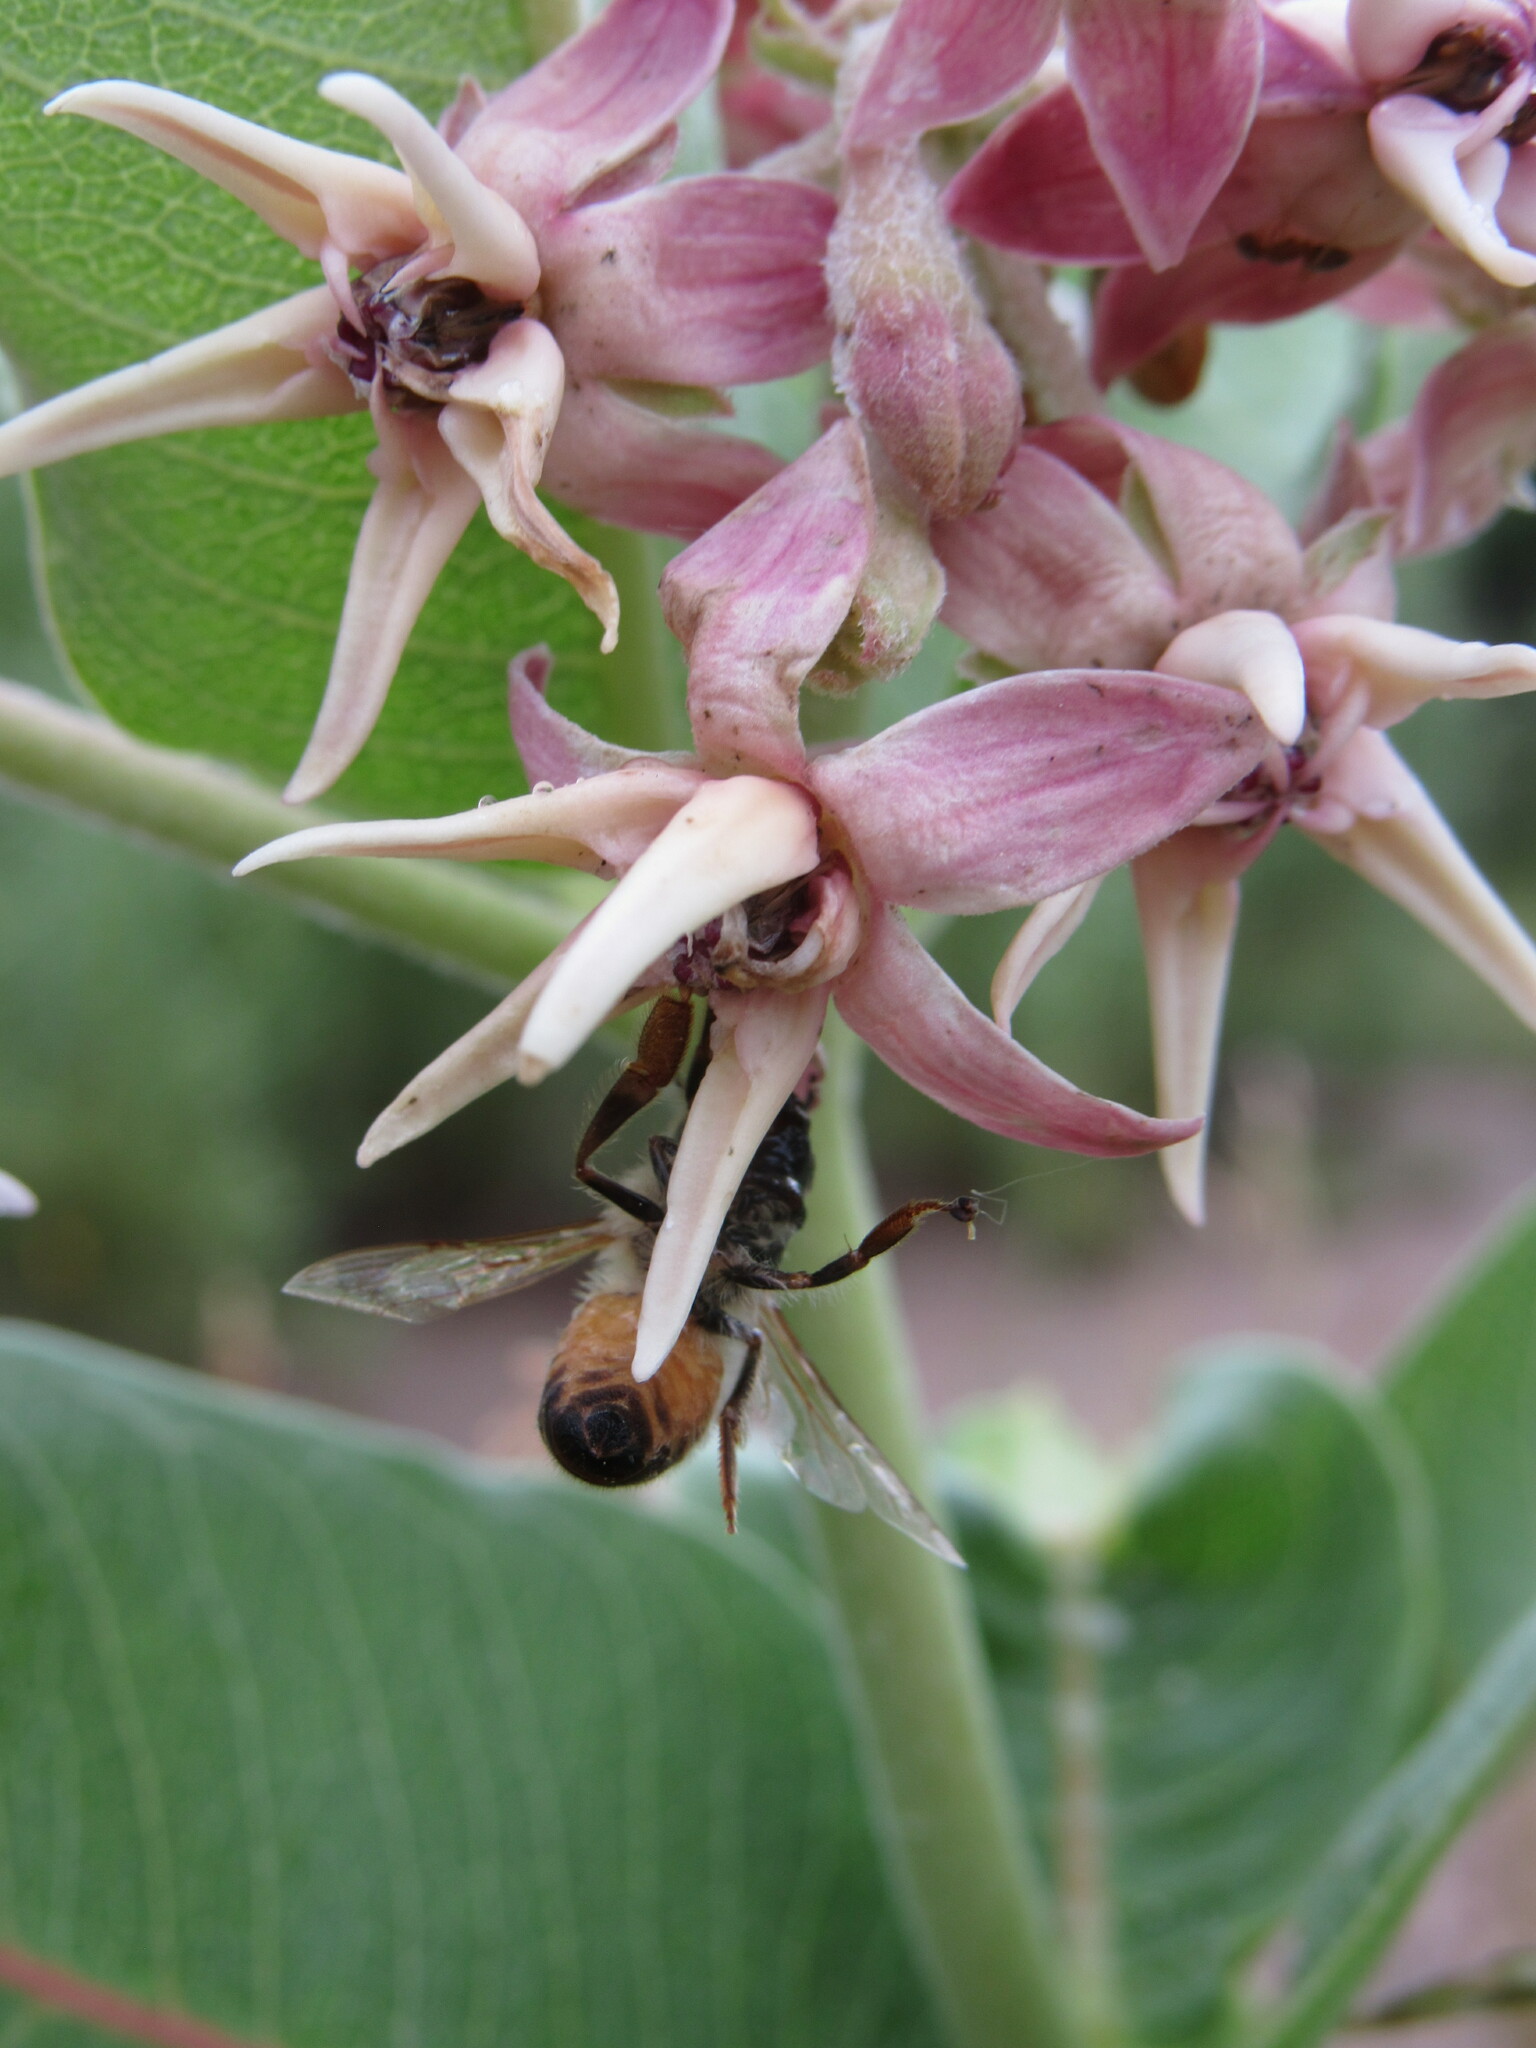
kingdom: Animalia
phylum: Arthropoda
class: Insecta
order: Hymenoptera
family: Apidae
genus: Apis
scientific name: Apis mellifera
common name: Honey bee
